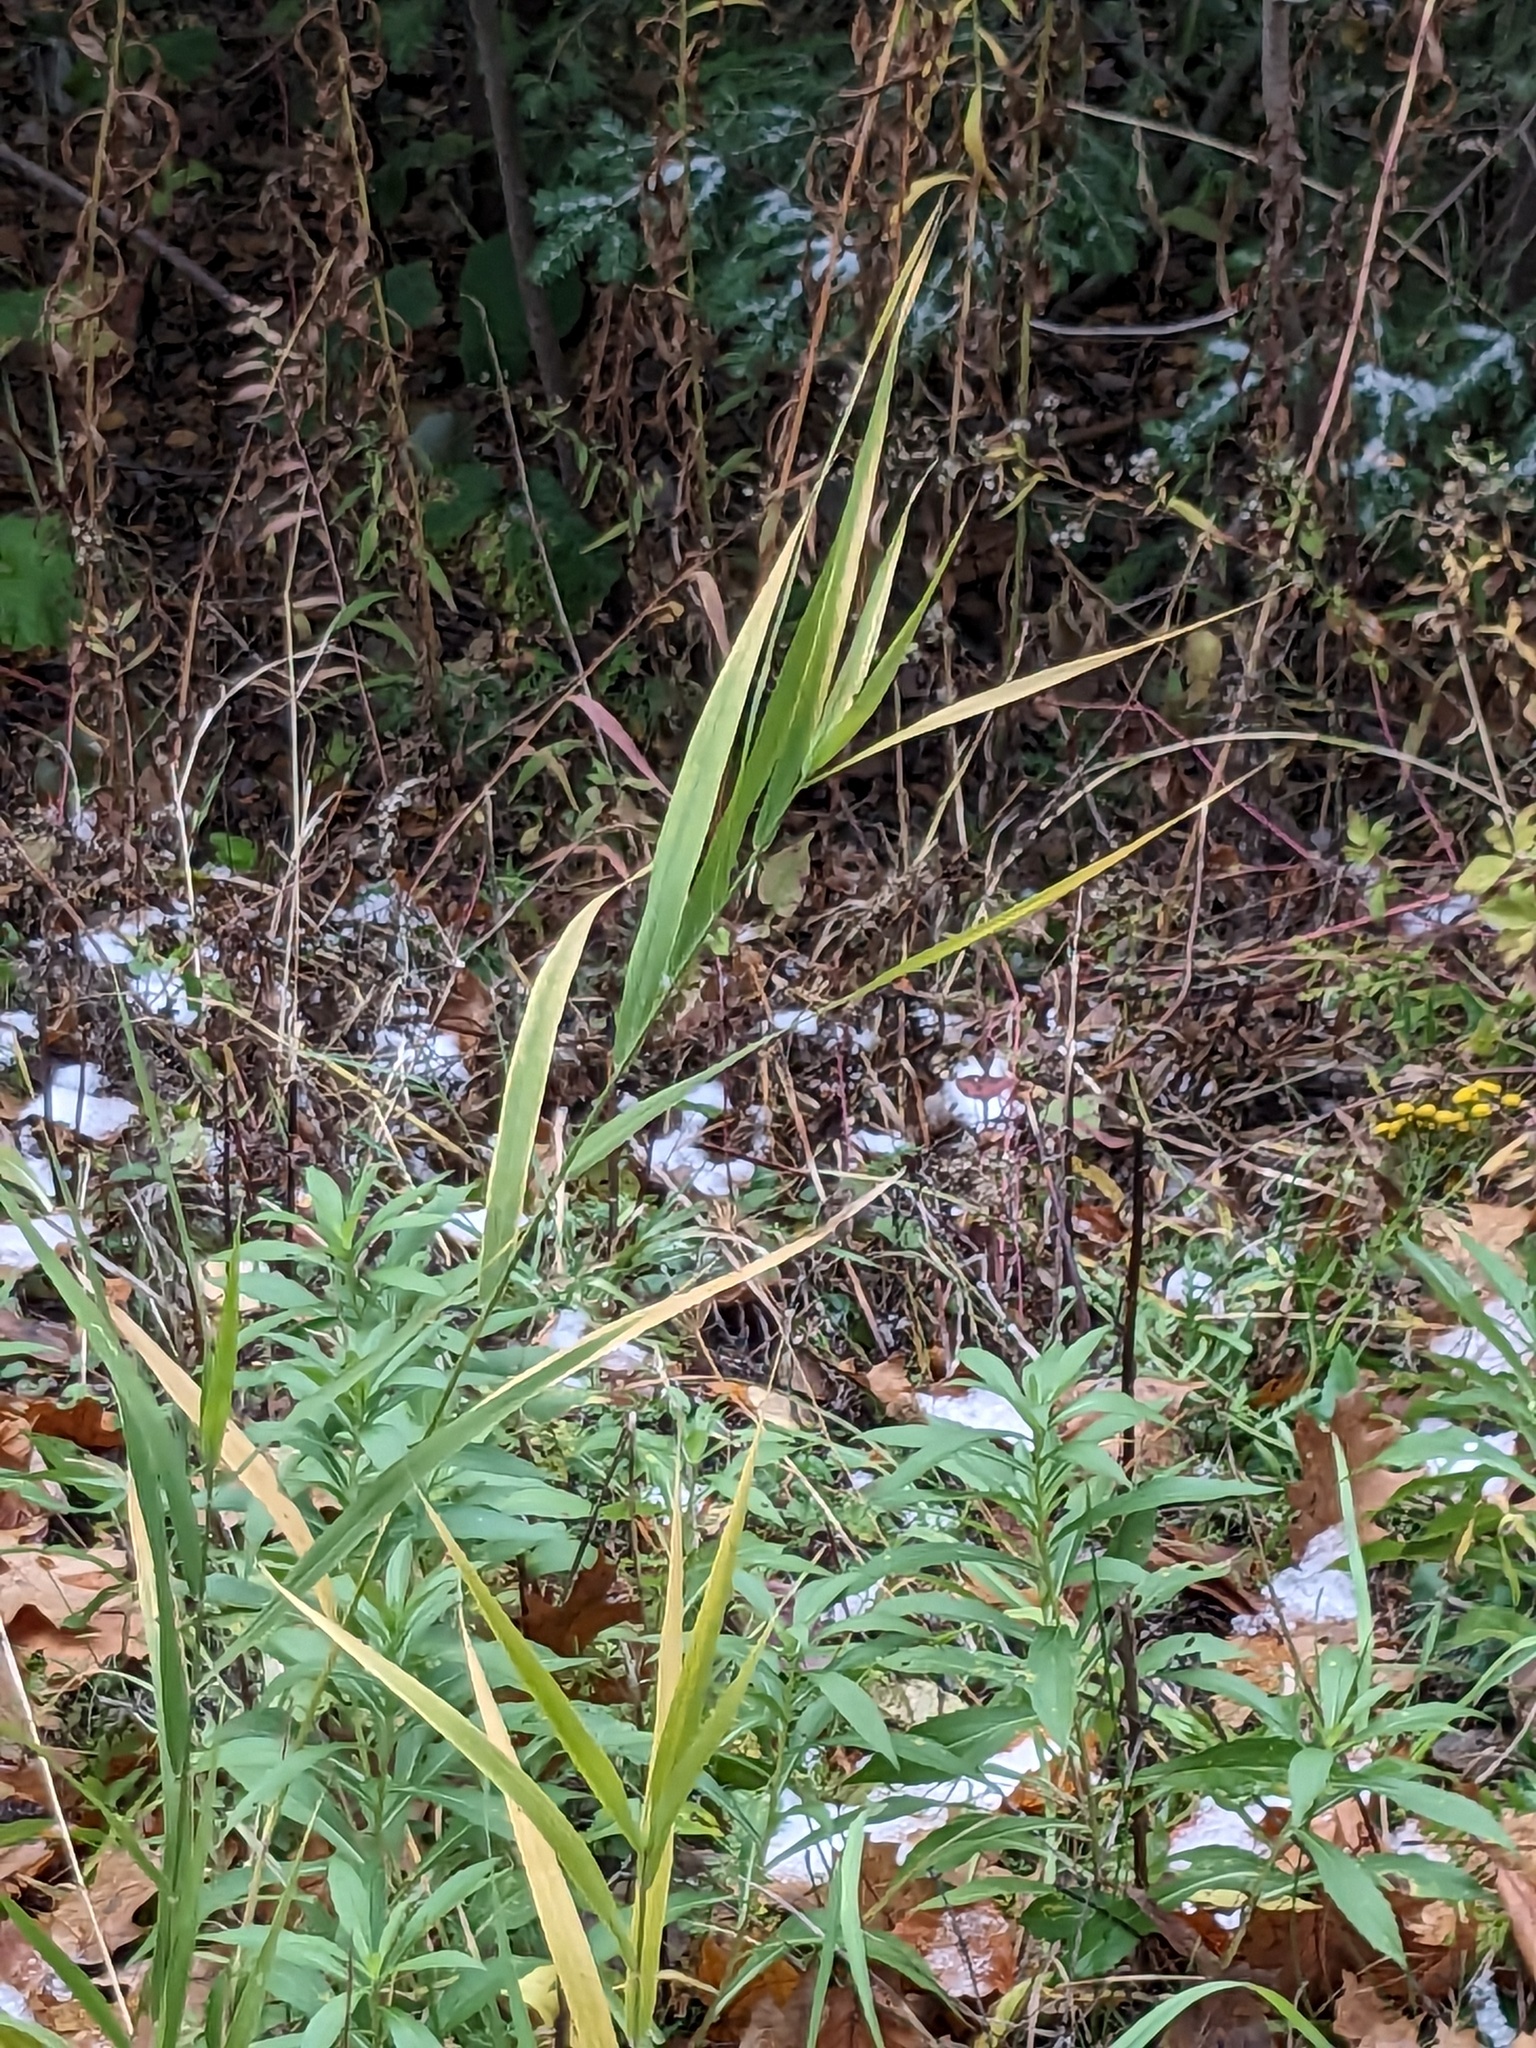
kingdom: Plantae
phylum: Tracheophyta
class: Liliopsida
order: Poales
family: Poaceae
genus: Phragmites
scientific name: Phragmites australis
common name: Common reed
